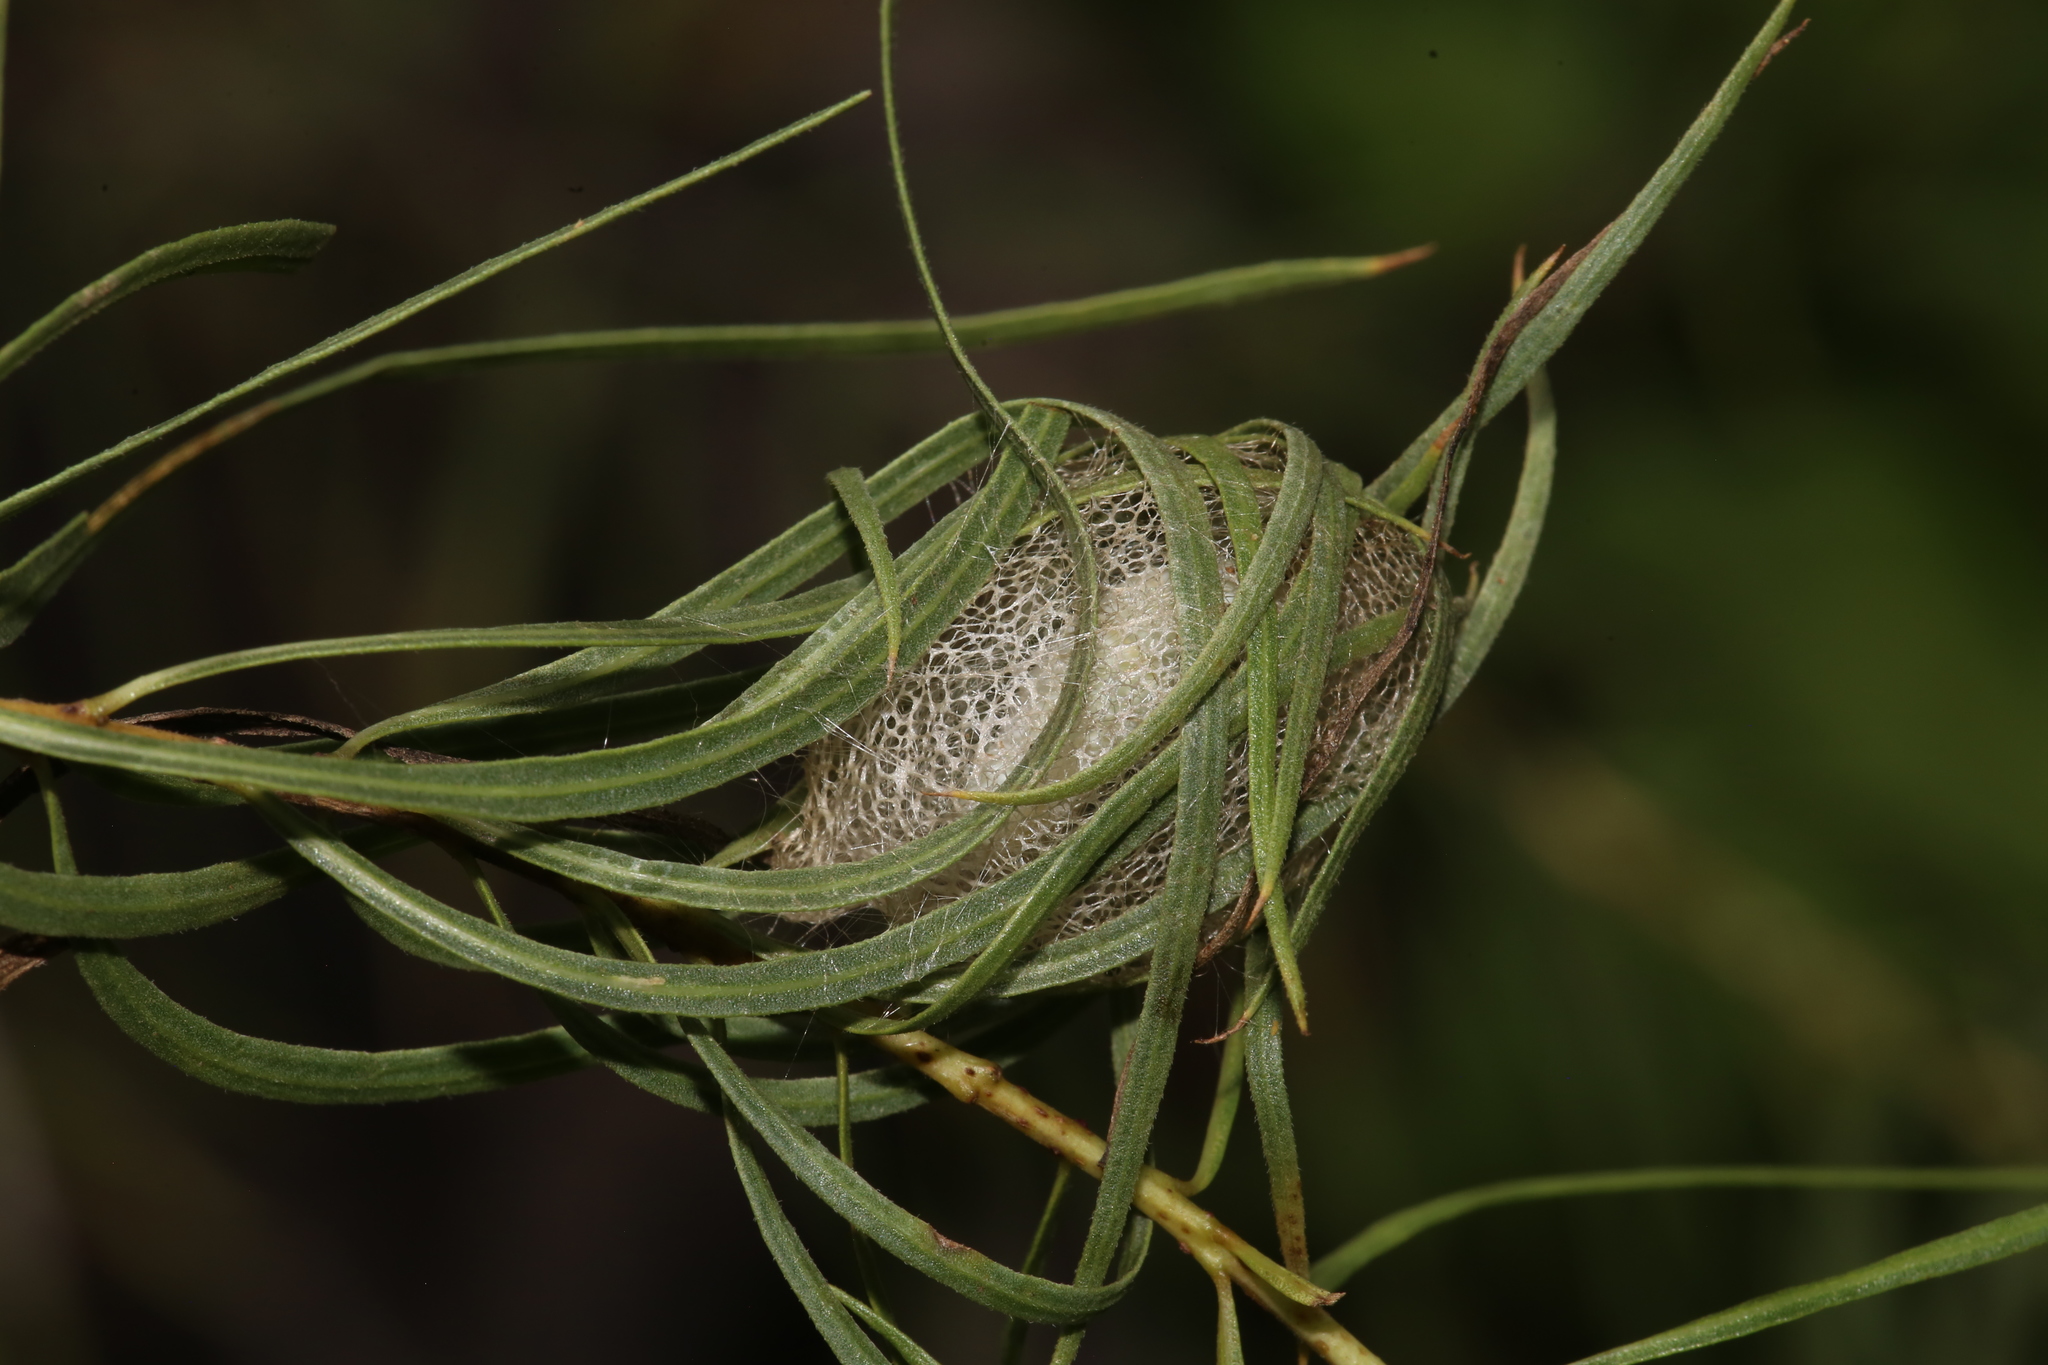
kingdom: Animalia
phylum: Arthropoda
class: Insecta
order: Lepidoptera
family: Geometridae
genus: Eucaterva
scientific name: Eucaterva variaria
